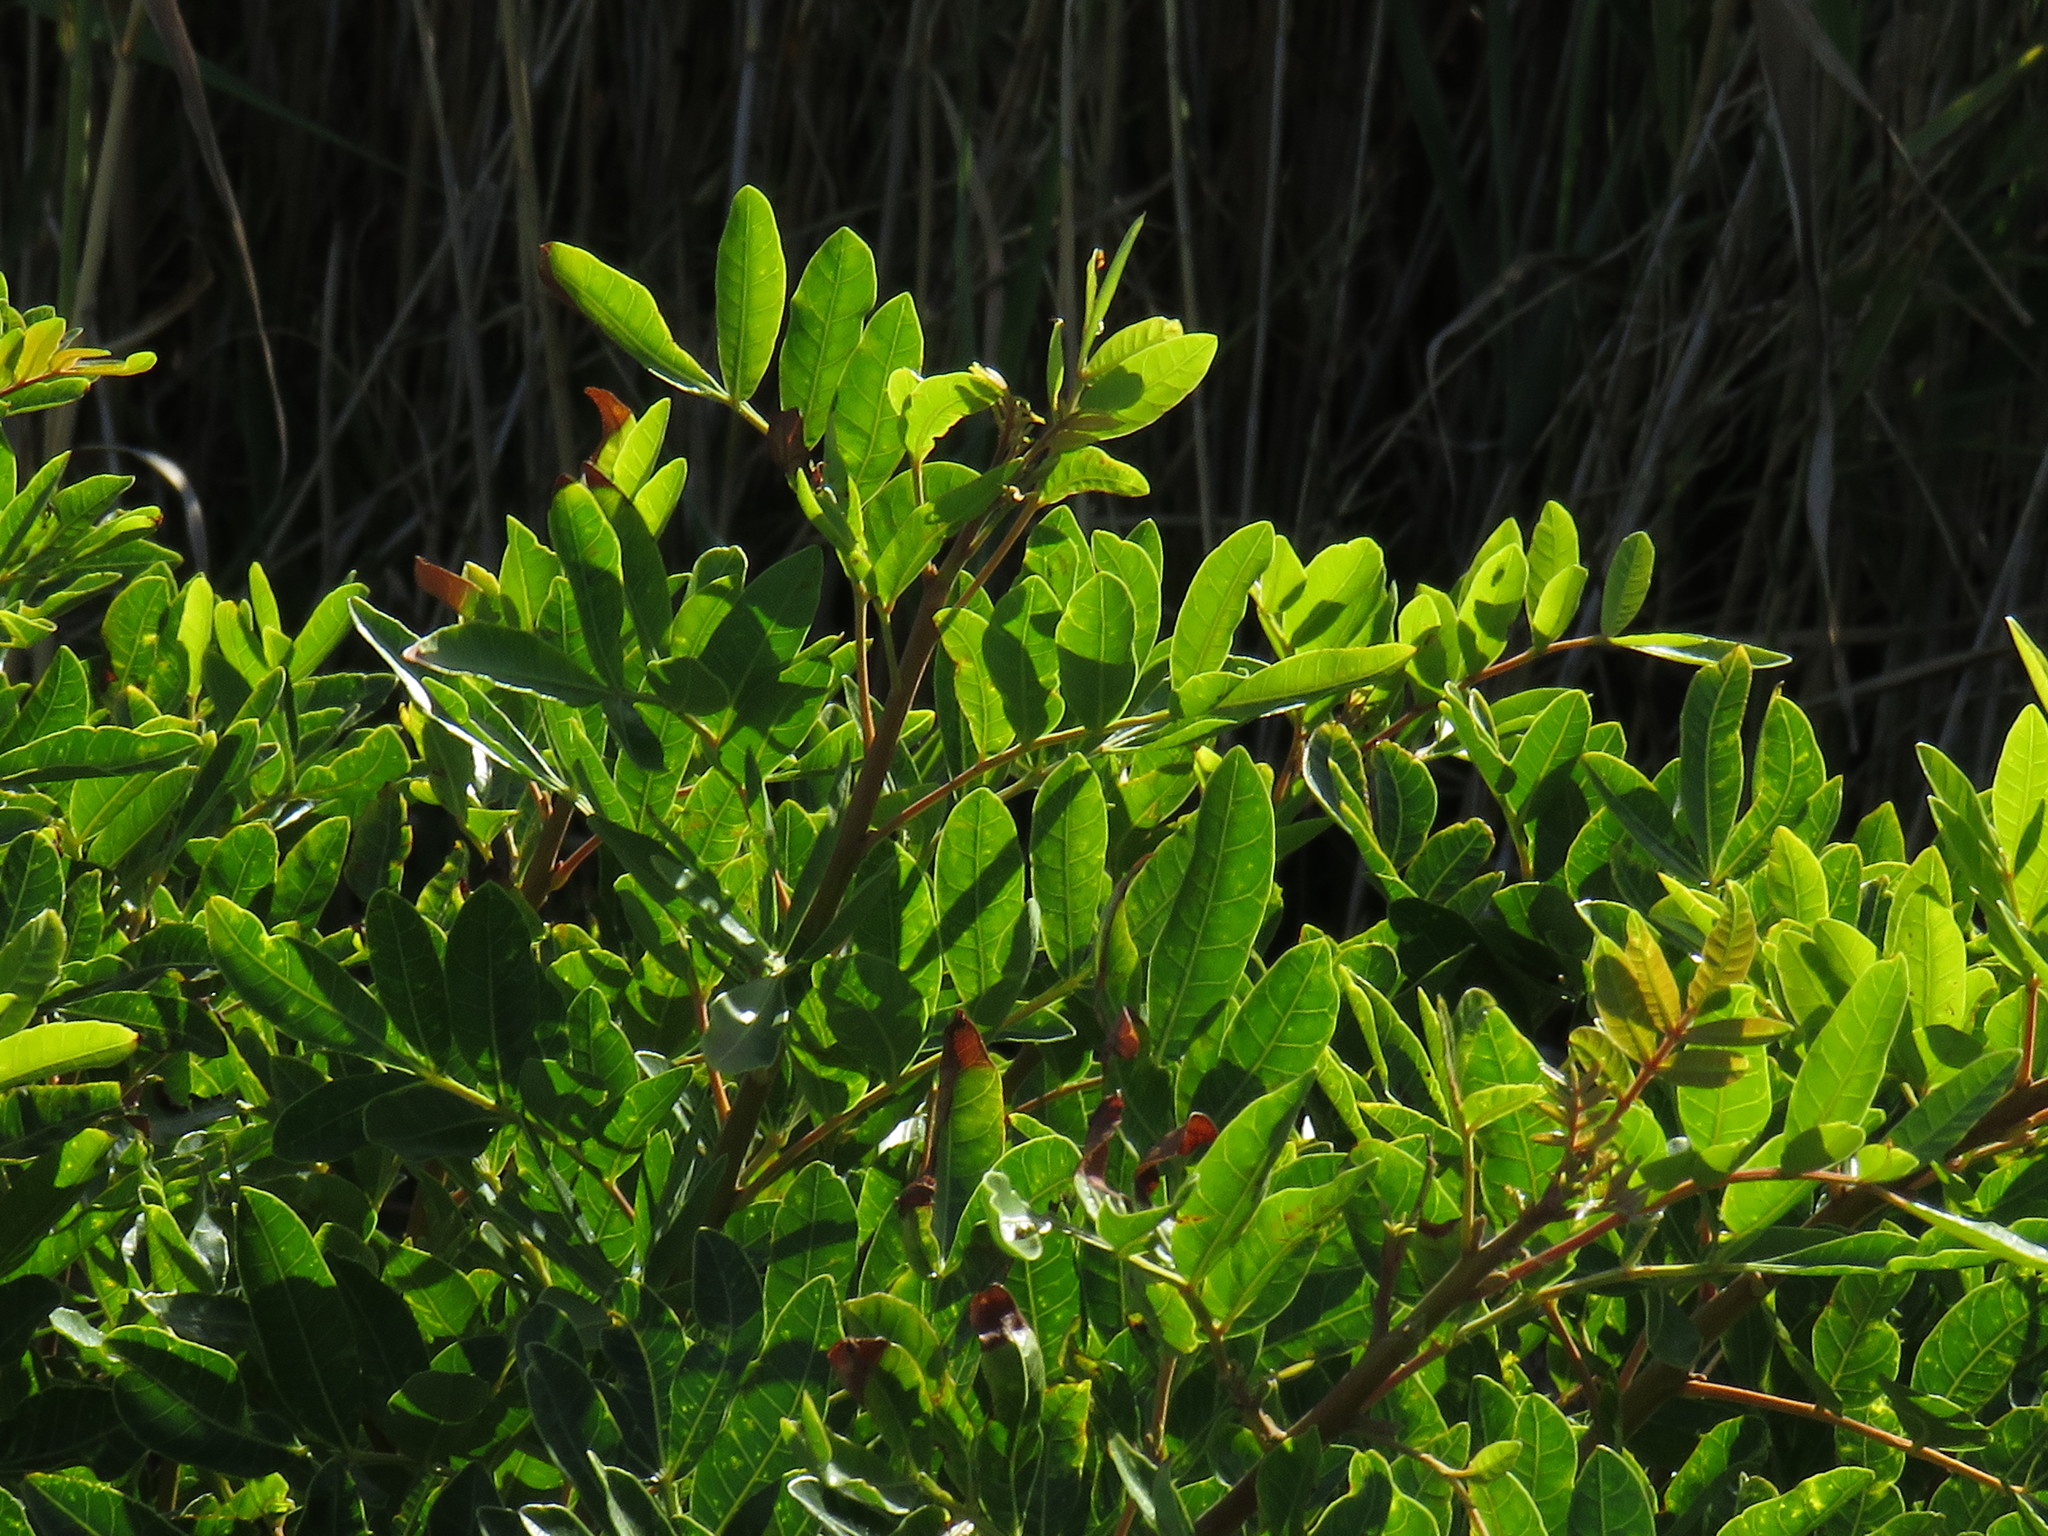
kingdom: Plantae
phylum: Tracheophyta
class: Magnoliopsida
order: Sapindales
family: Anacardiaceae
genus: Schinus
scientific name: Schinus terebinthifolia
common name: Brazilian peppertree
